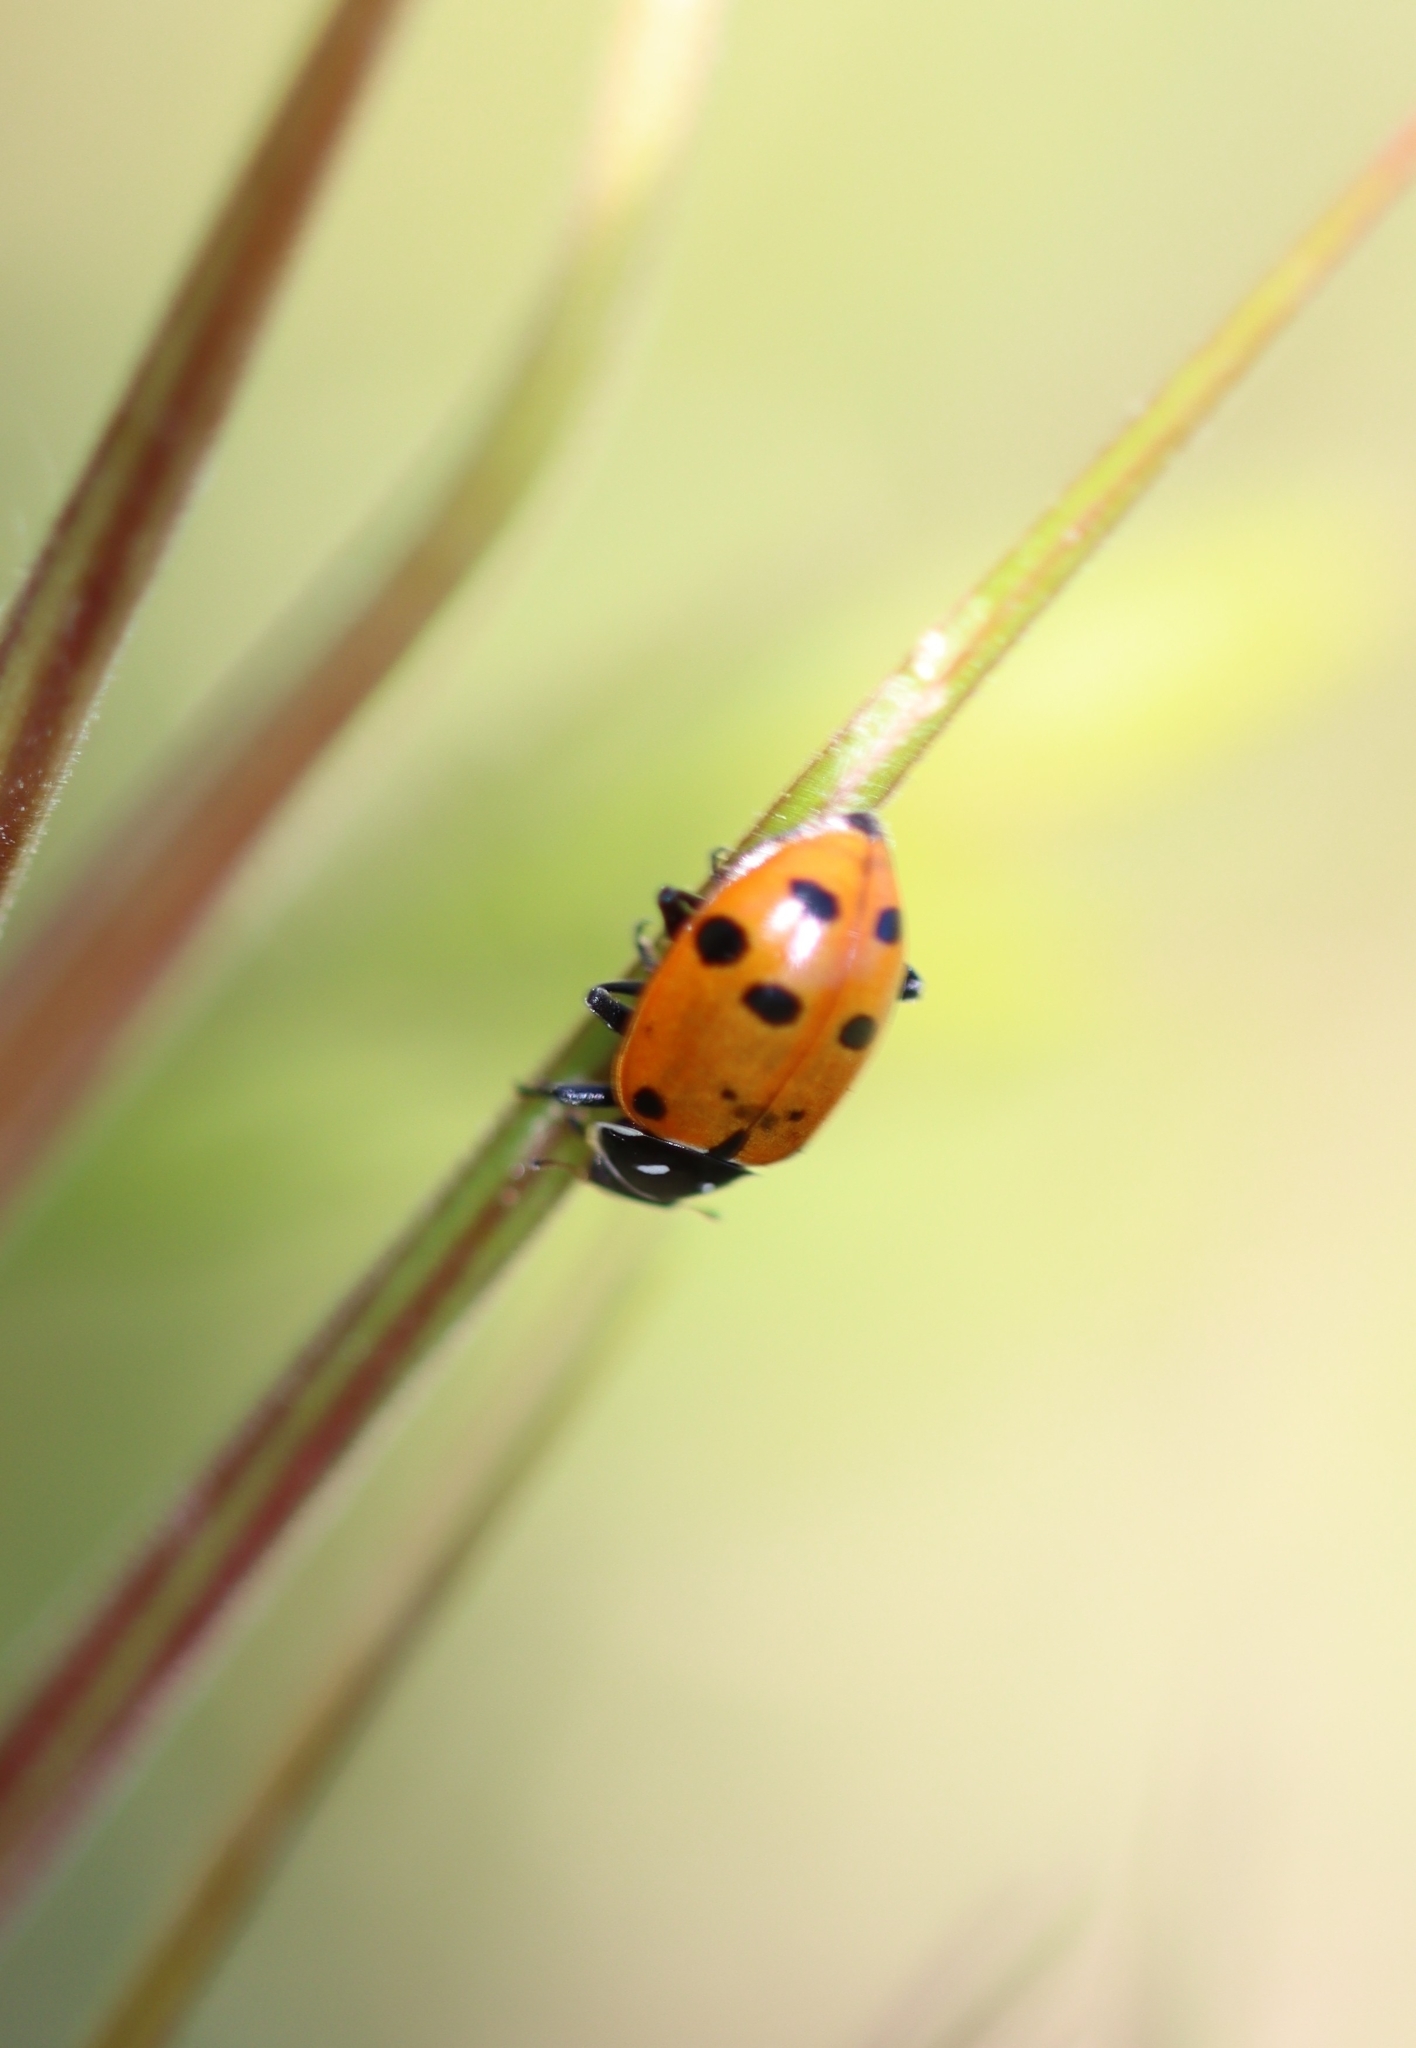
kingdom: Animalia
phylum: Arthropoda
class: Insecta
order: Coleoptera
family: Coccinellidae
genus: Hippodamia
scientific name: Hippodamia convergens
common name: Convergent lady beetle
